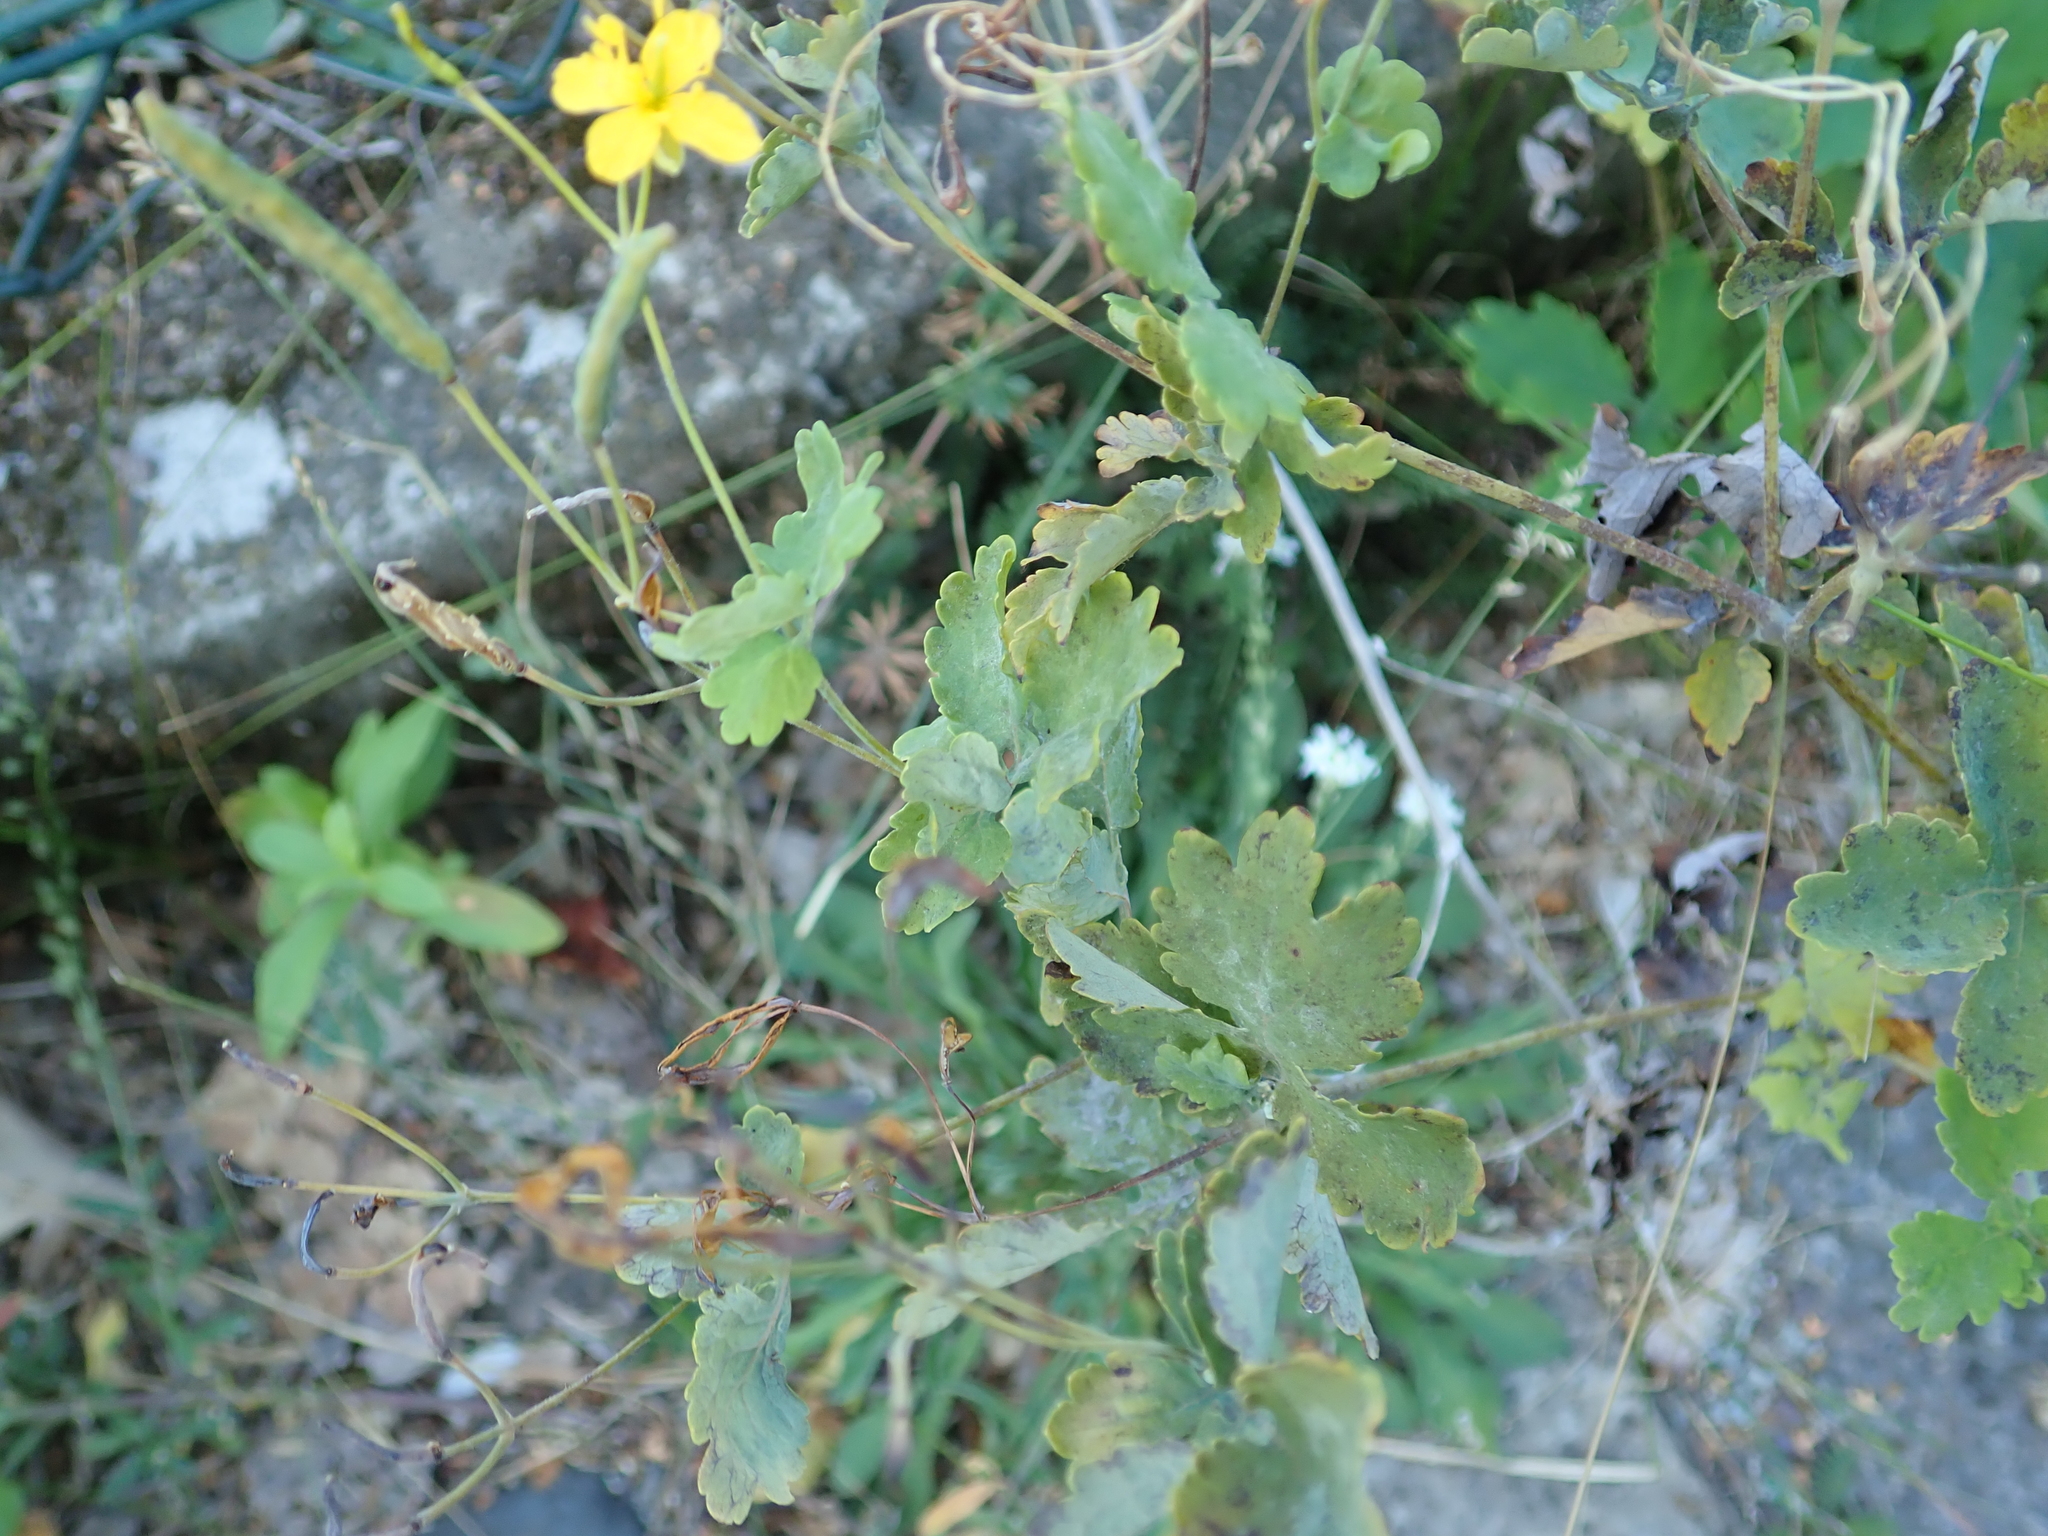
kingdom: Plantae
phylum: Tracheophyta
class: Magnoliopsida
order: Ranunculales
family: Papaveraceae
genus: Chelidonium
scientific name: Chelidonium majus
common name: Greater celandine
